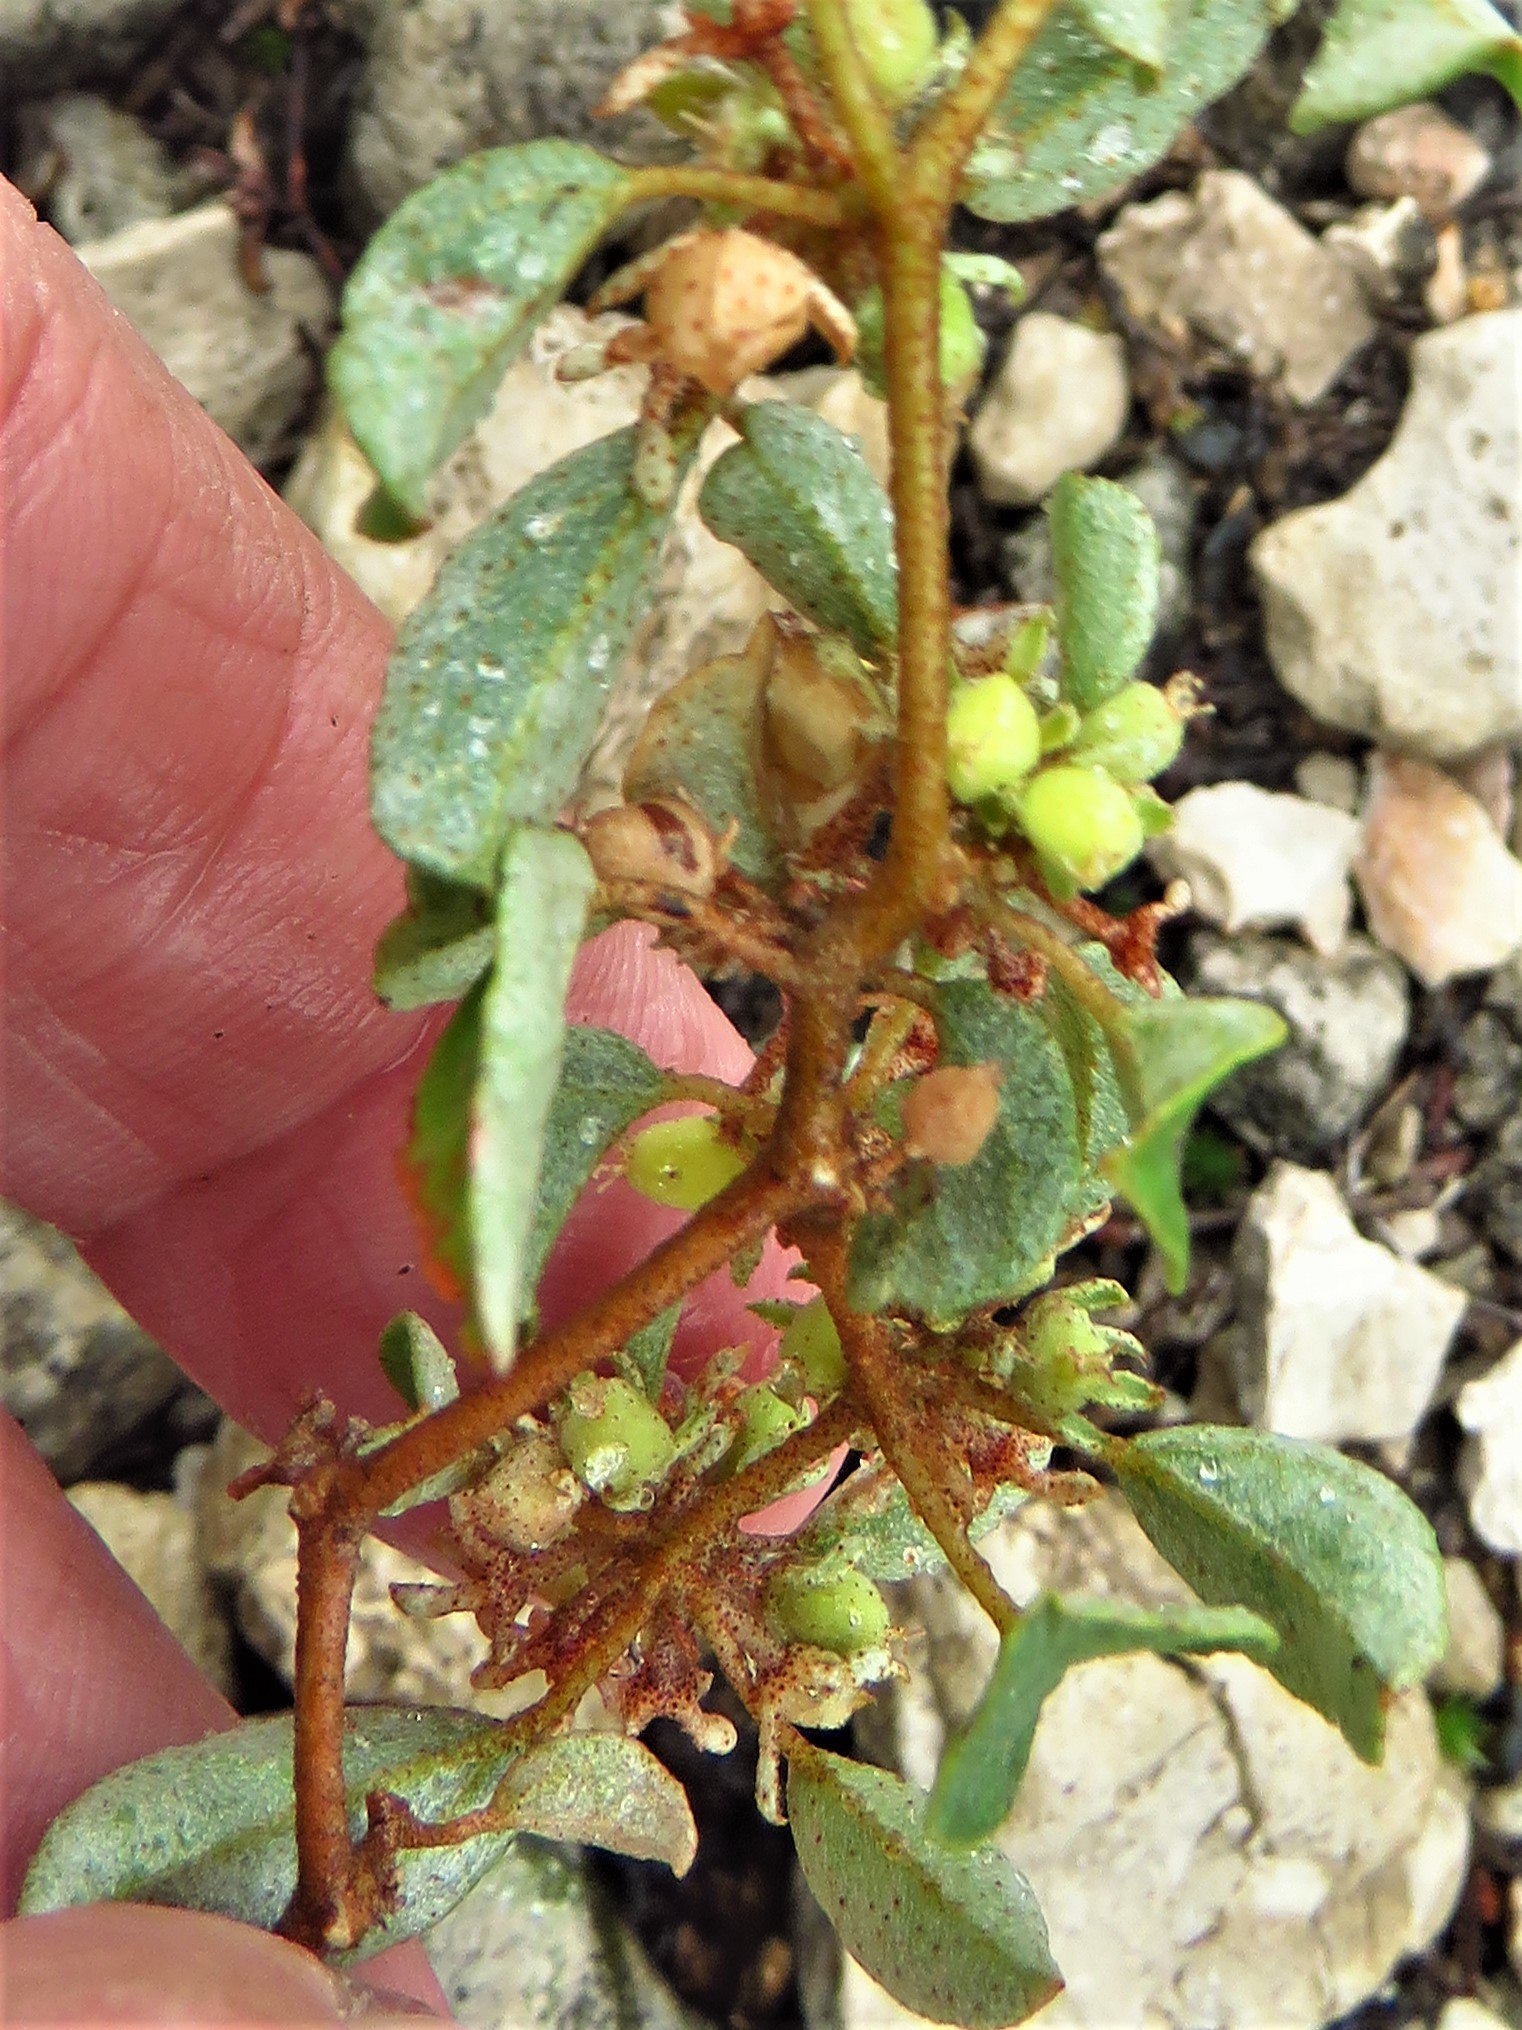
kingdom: Plantae
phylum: Tracheophyta
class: Magnoliopsida
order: Malpighiales
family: Euphorbiaceae
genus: Croton
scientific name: Croton monanthogynus
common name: One-seed croton
